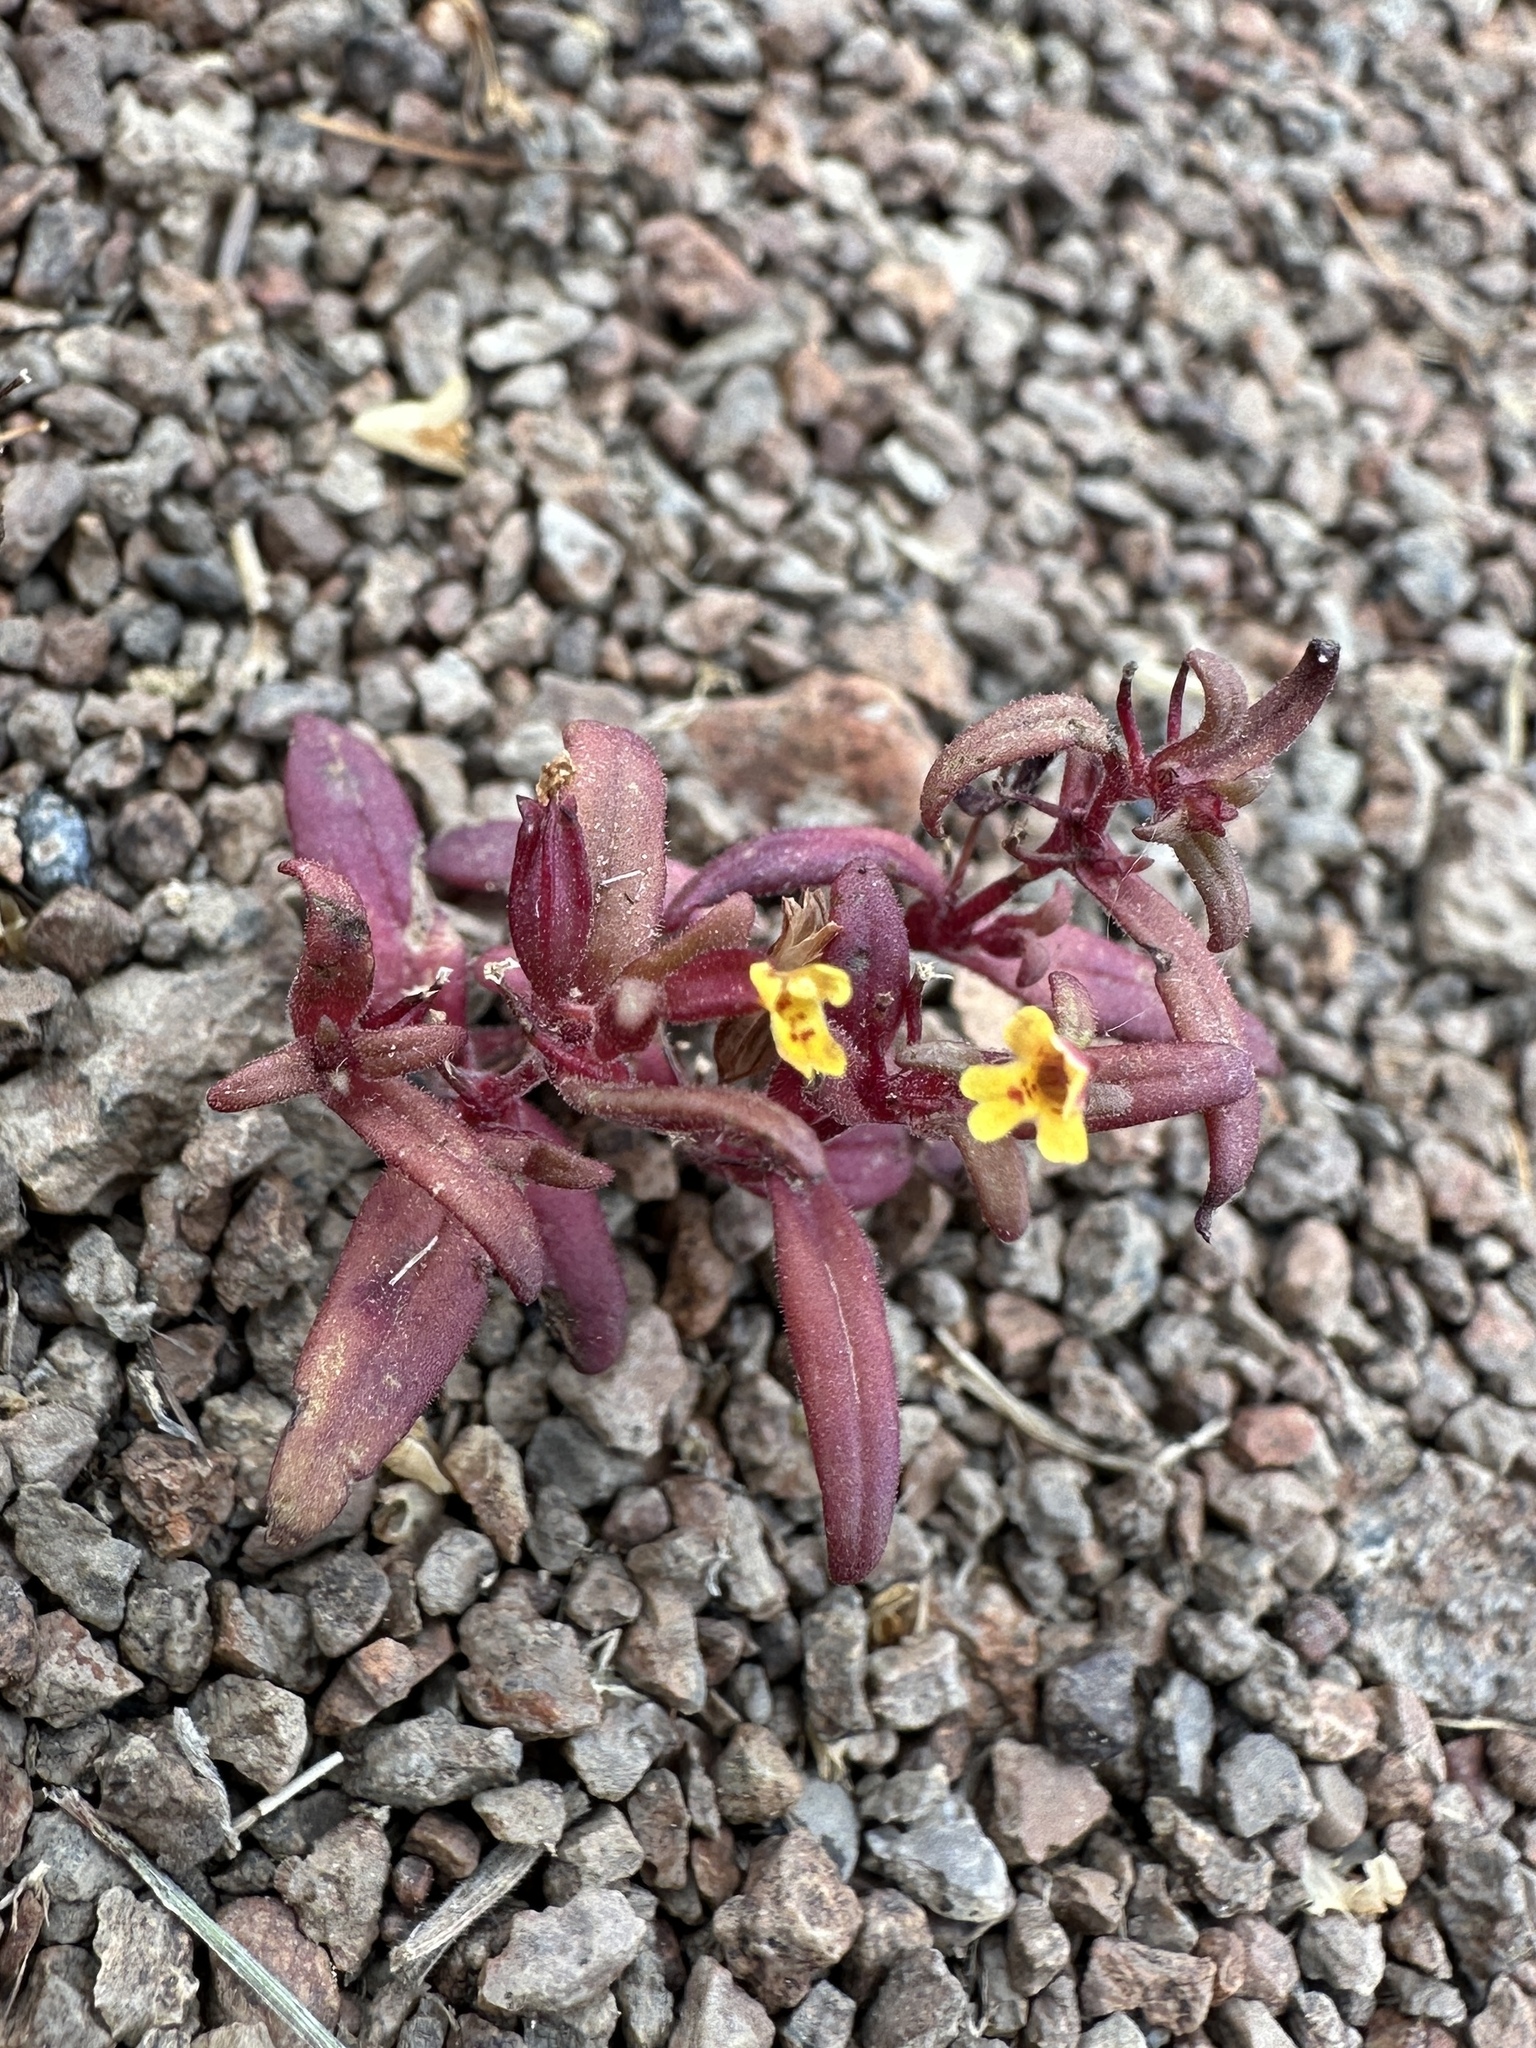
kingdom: Plantae
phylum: Tracheophyta
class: Magnoliopsida
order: Lamiales
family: Phrymaceae
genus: Erythranthe
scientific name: Erythranthe suksdorfii
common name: Suksdorf's monkeyflower
